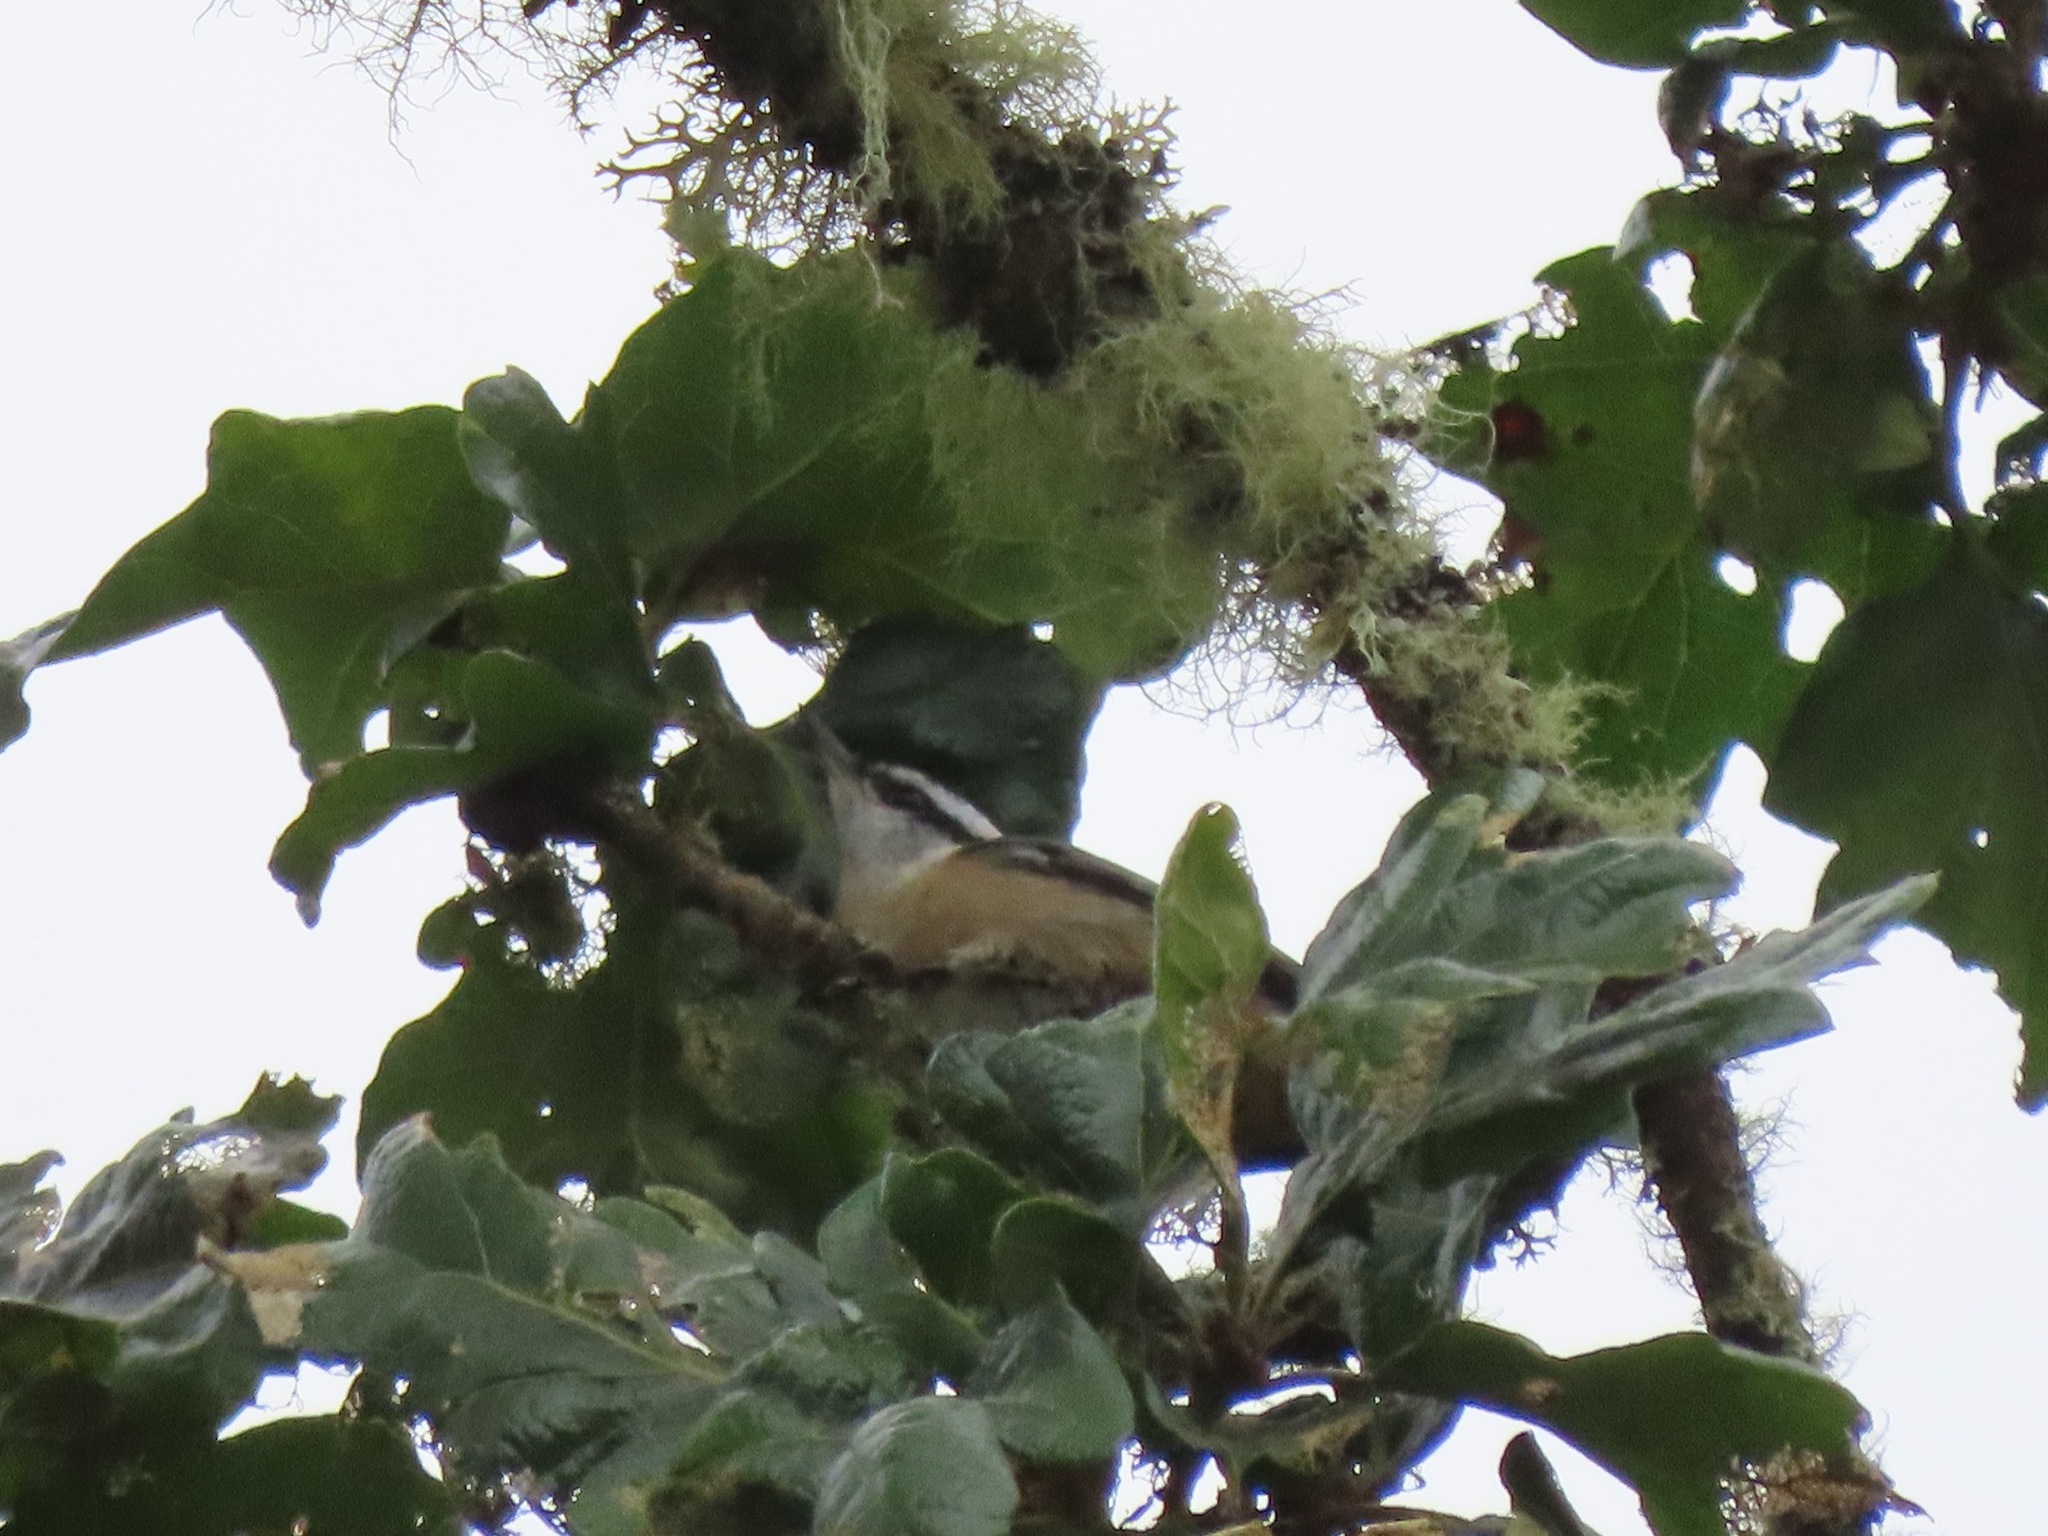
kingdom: Animalia
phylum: Chordata
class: Aves
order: Passeriformes
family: Sittidae
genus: Sitta
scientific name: Sitta canadensis
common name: Red-breasted nuthatch
